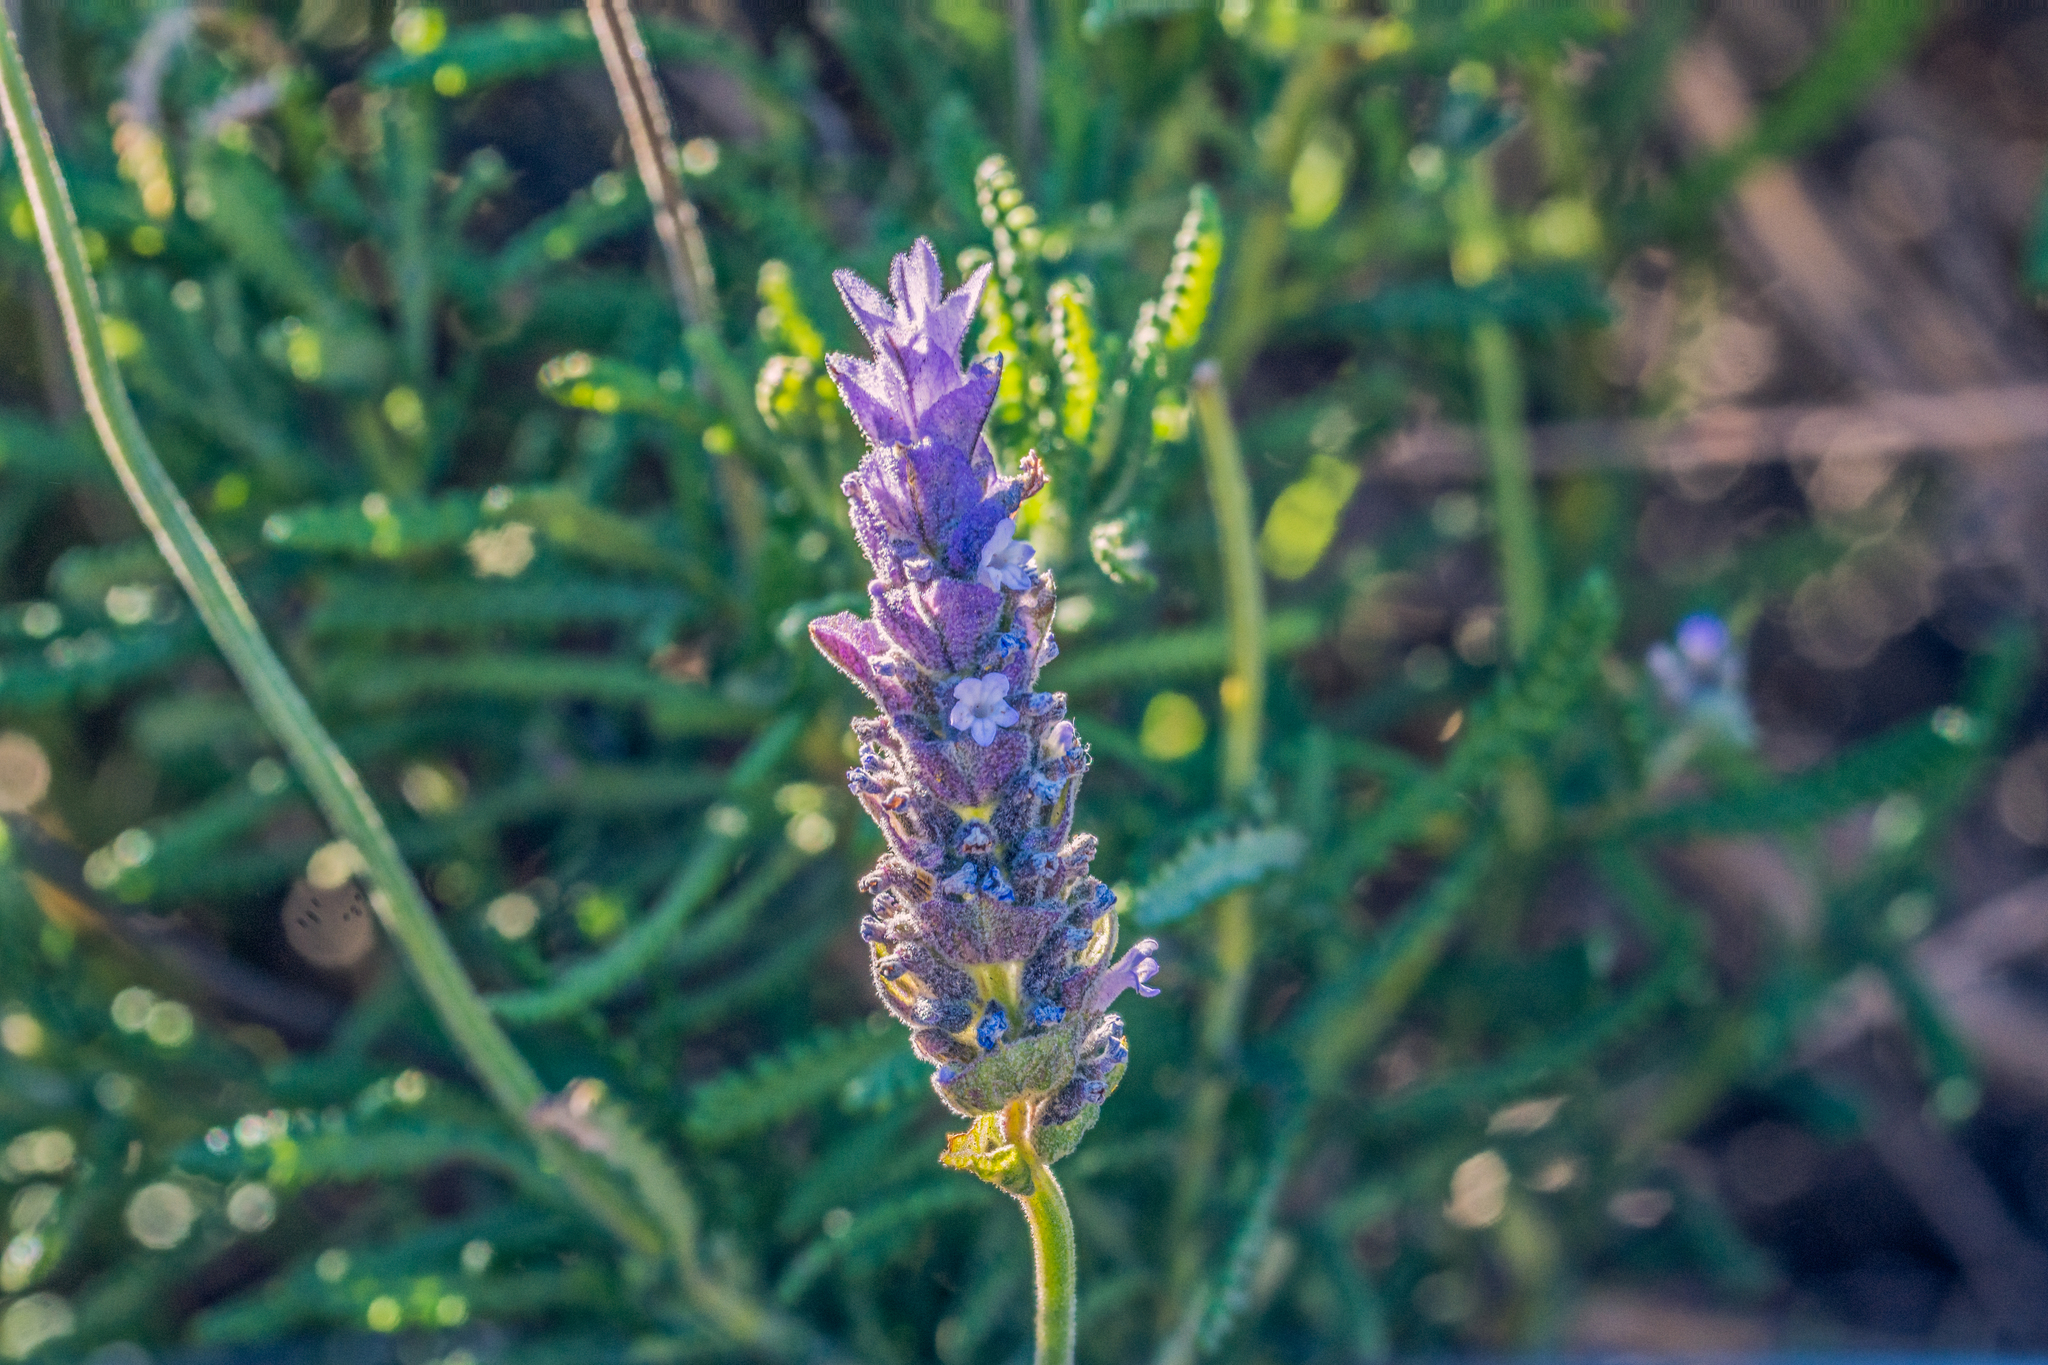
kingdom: Plantae
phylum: Tracheophyta
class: Magnoliopsida
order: Lamiales
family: Lamiaceae
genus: Lavandula
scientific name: Lavandula dentata
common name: French lavender
